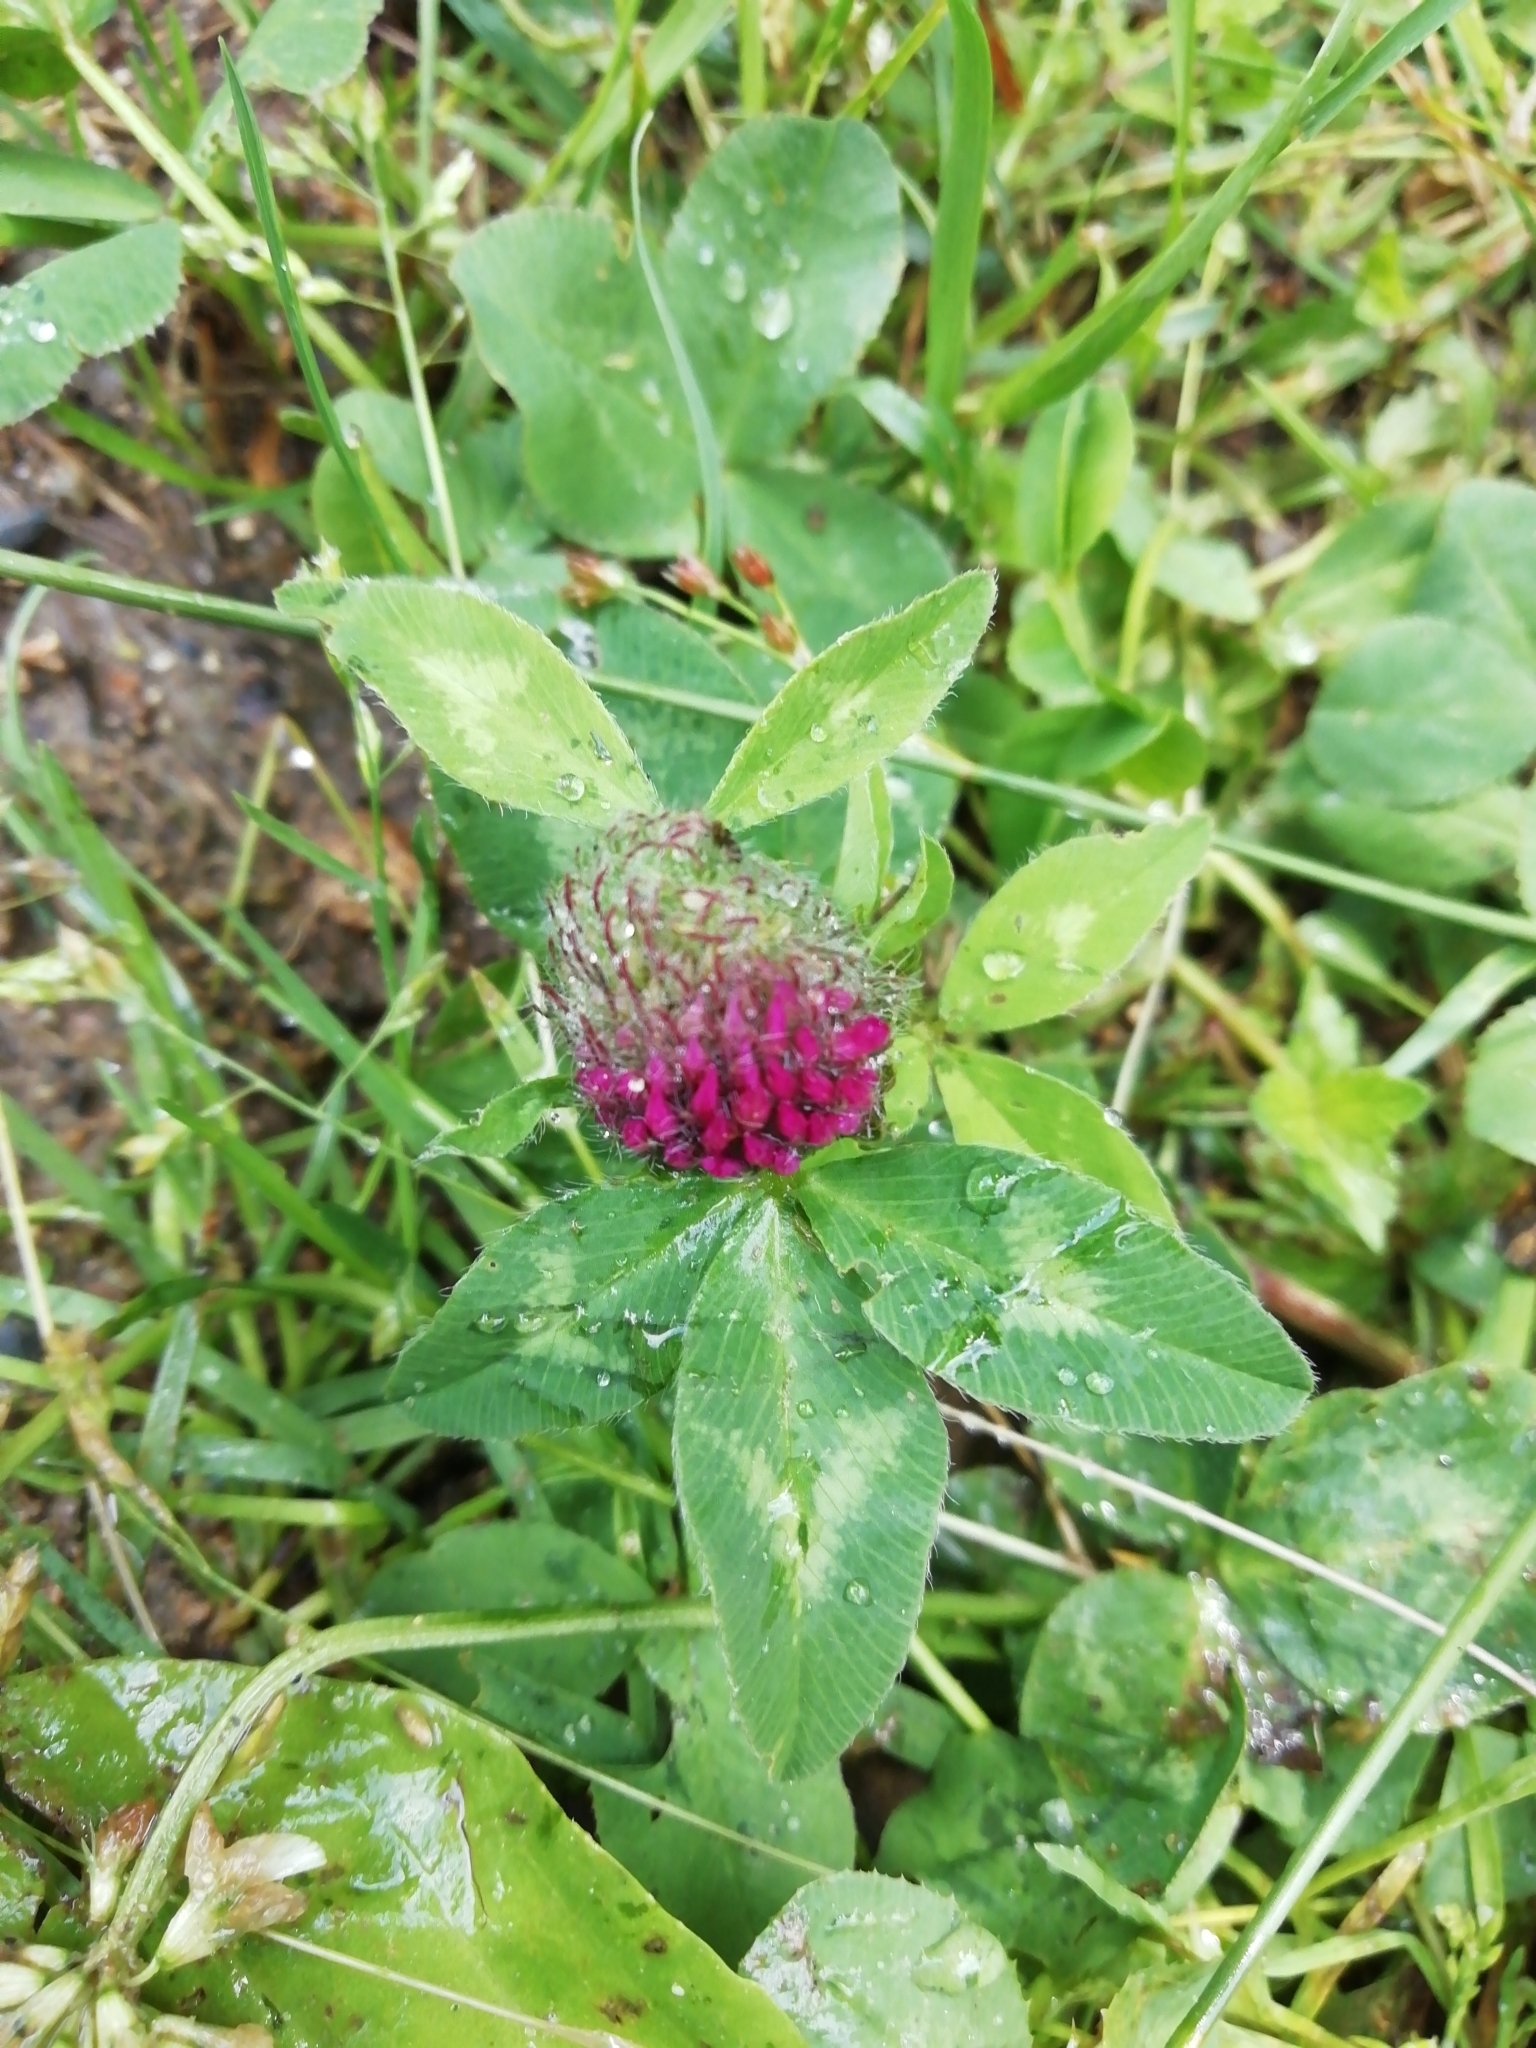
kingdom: Plantae
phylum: Tracheophyta
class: Magnoliopsida
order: Fabales
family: Fabaceae
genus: Trifolium
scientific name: Trifolium pratense
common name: Red clover
